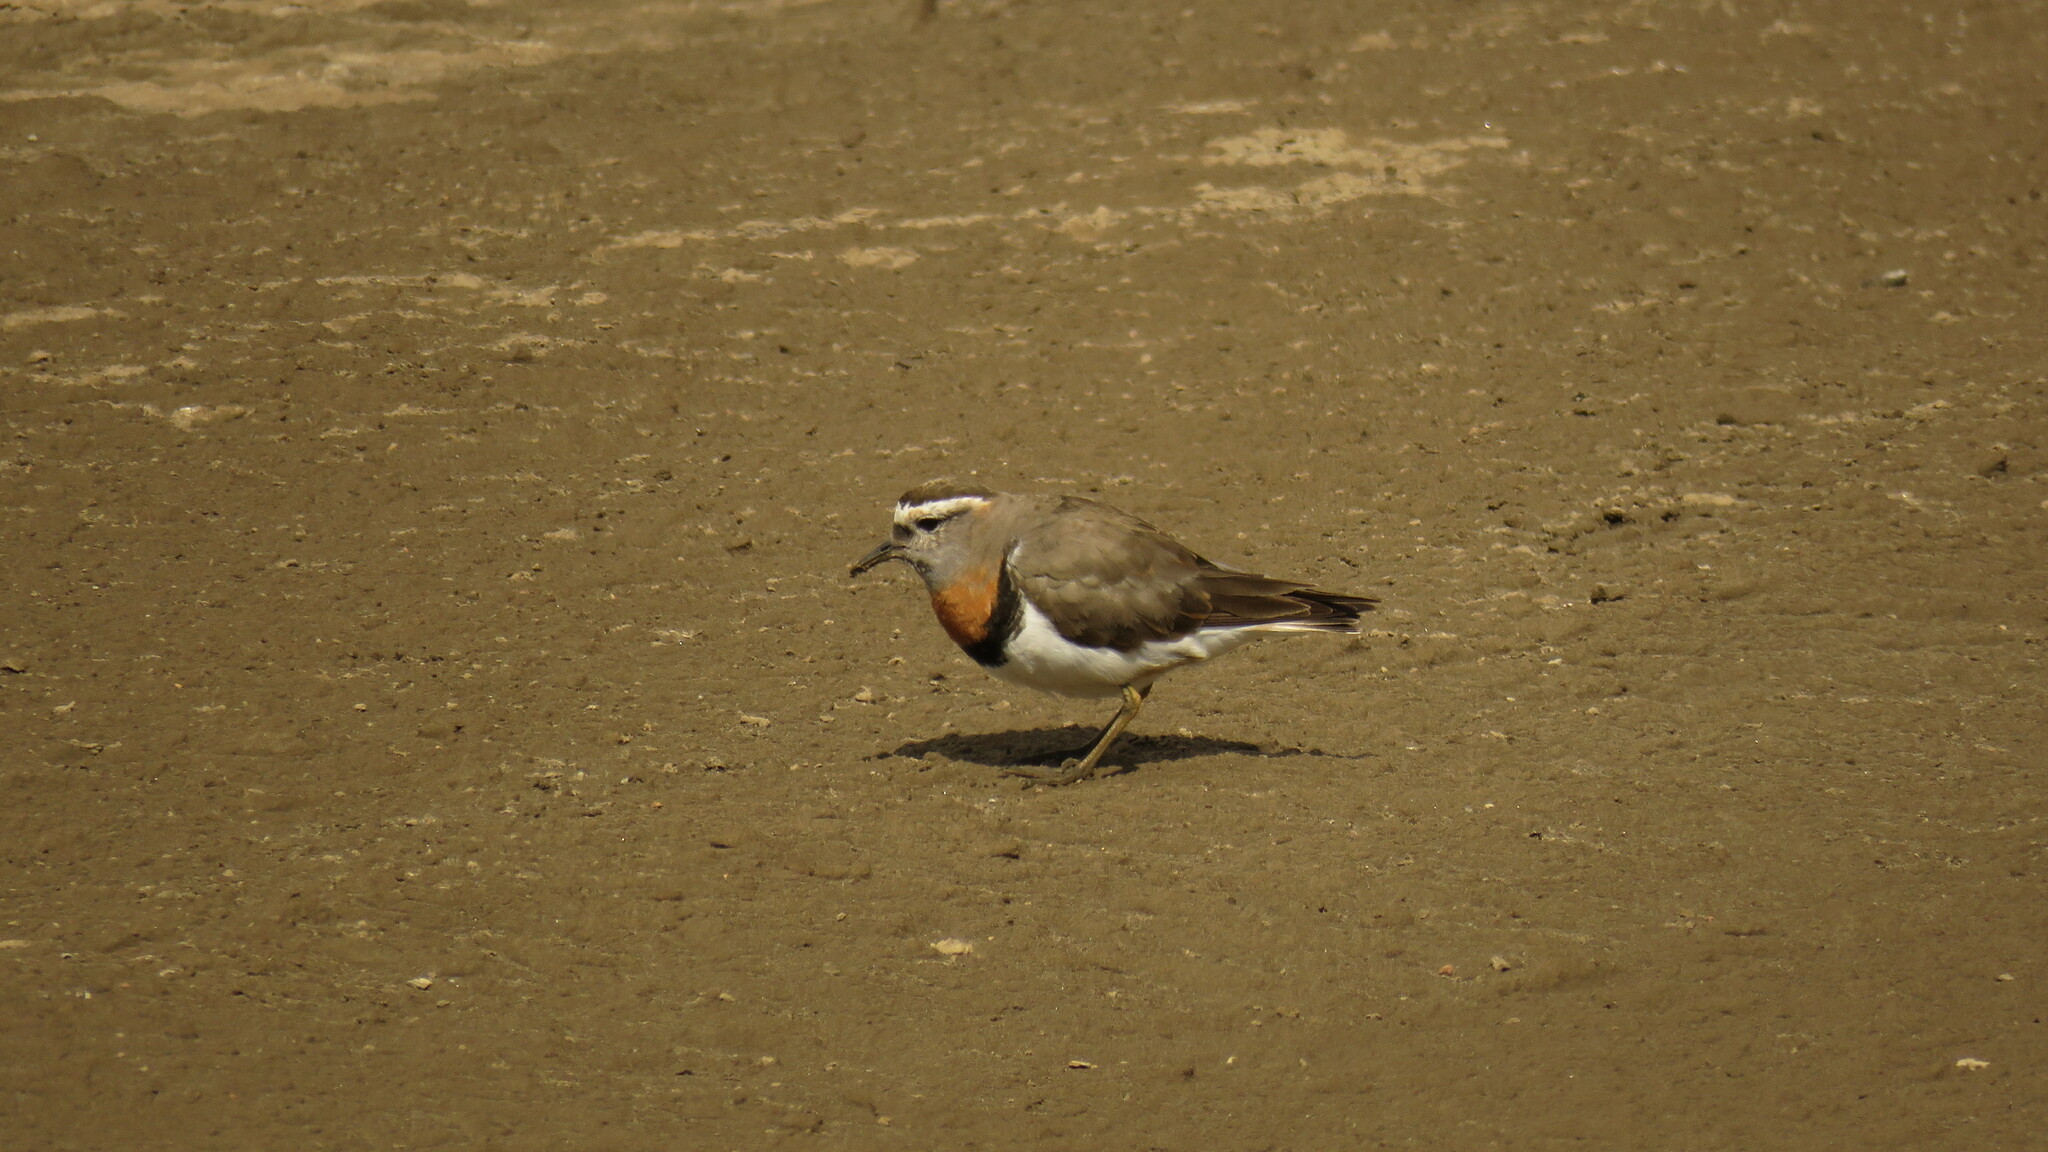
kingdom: Animalia
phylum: Chordata
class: Aves
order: Charadriiformes
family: Charadriidae
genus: Charadrius
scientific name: Charadrius modestus
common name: Rufous-chested plover
